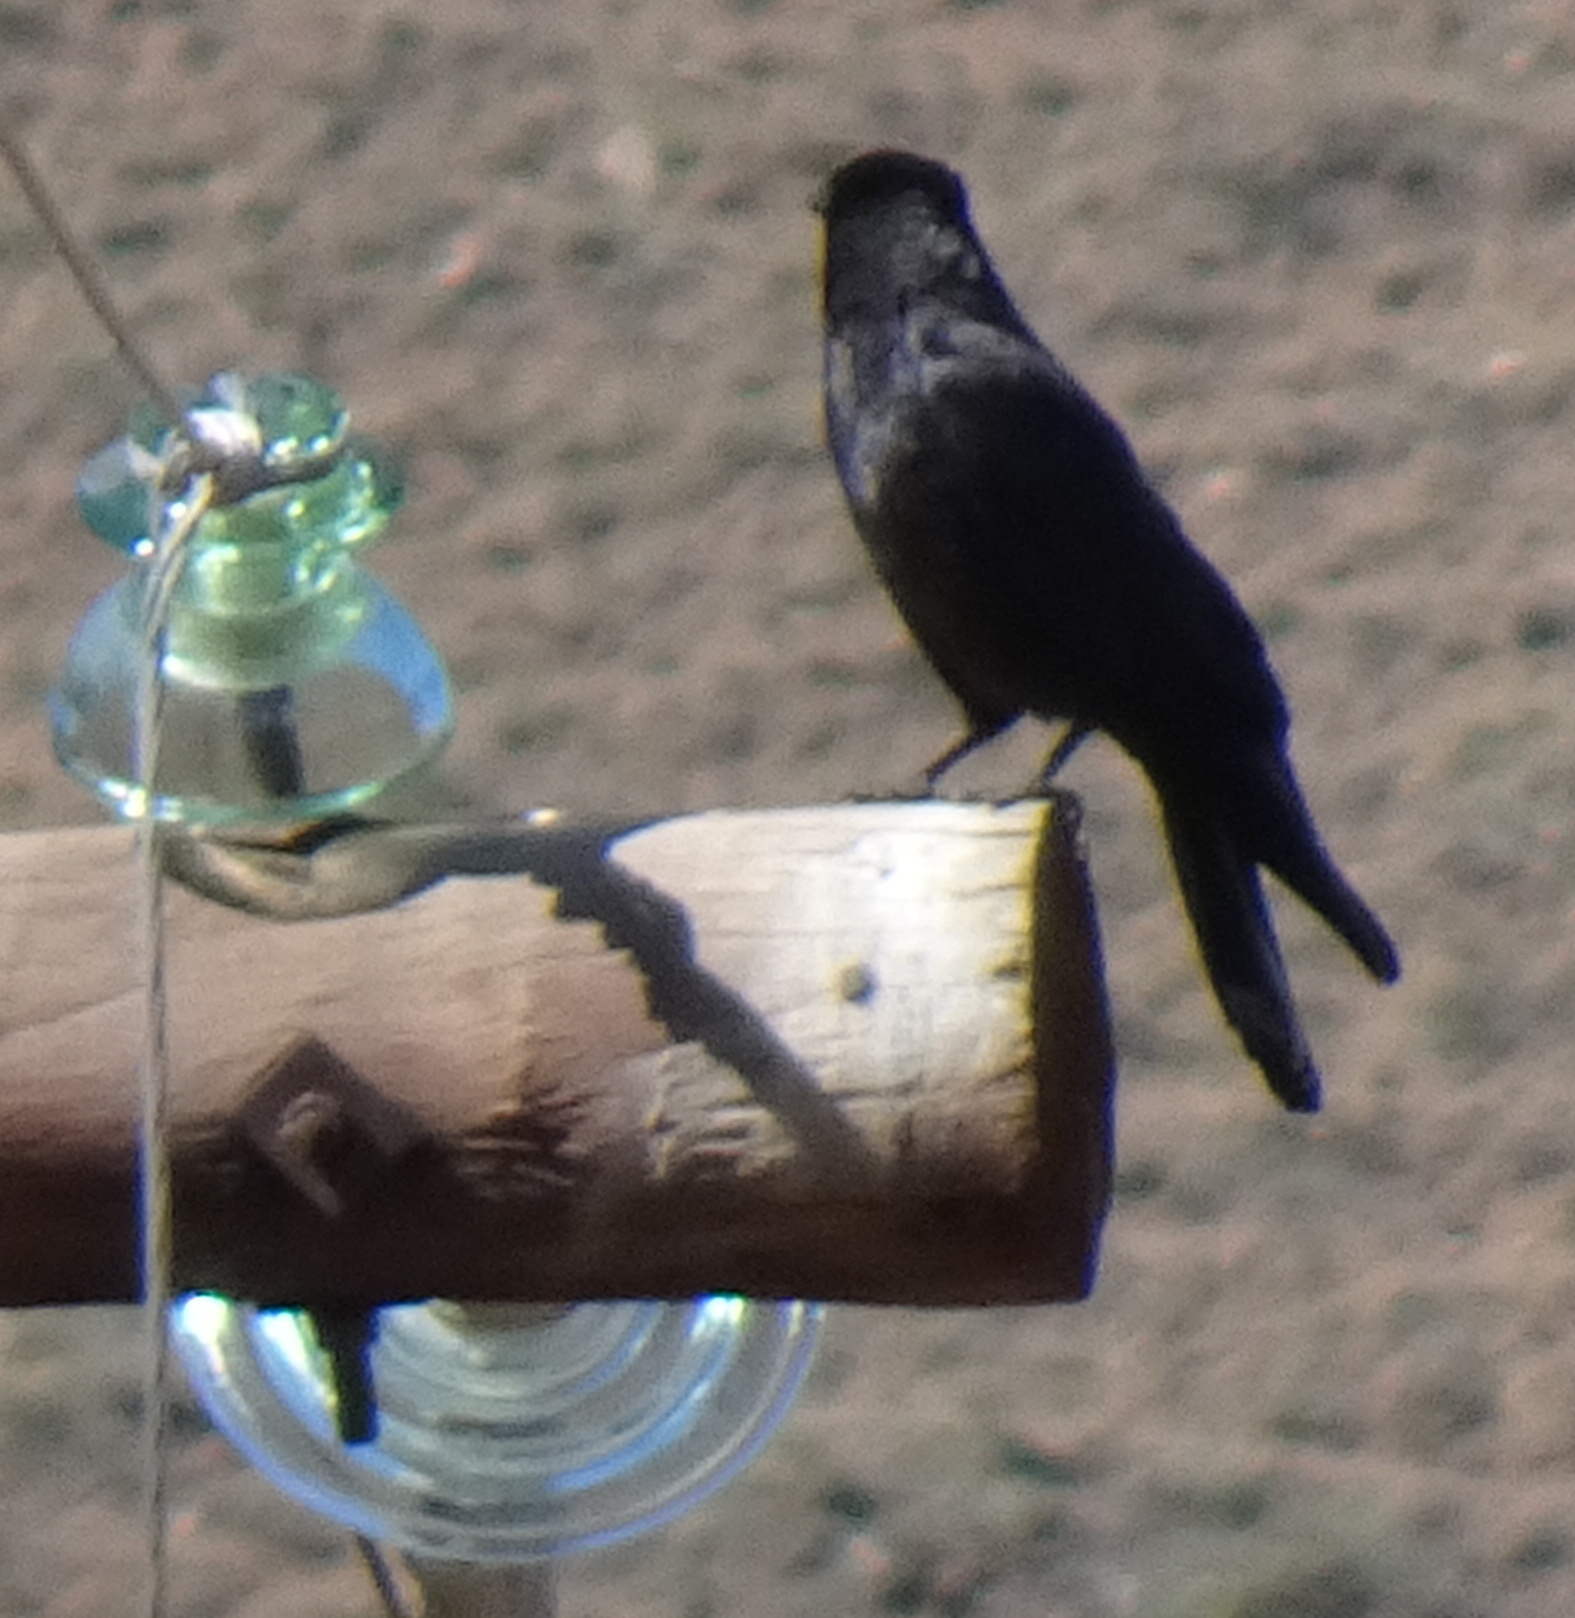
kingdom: Animalia
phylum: Chordata
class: Aves
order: Passeriformes
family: Corvidae
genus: Corvus
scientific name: Corvus corone
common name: Carrion crow
